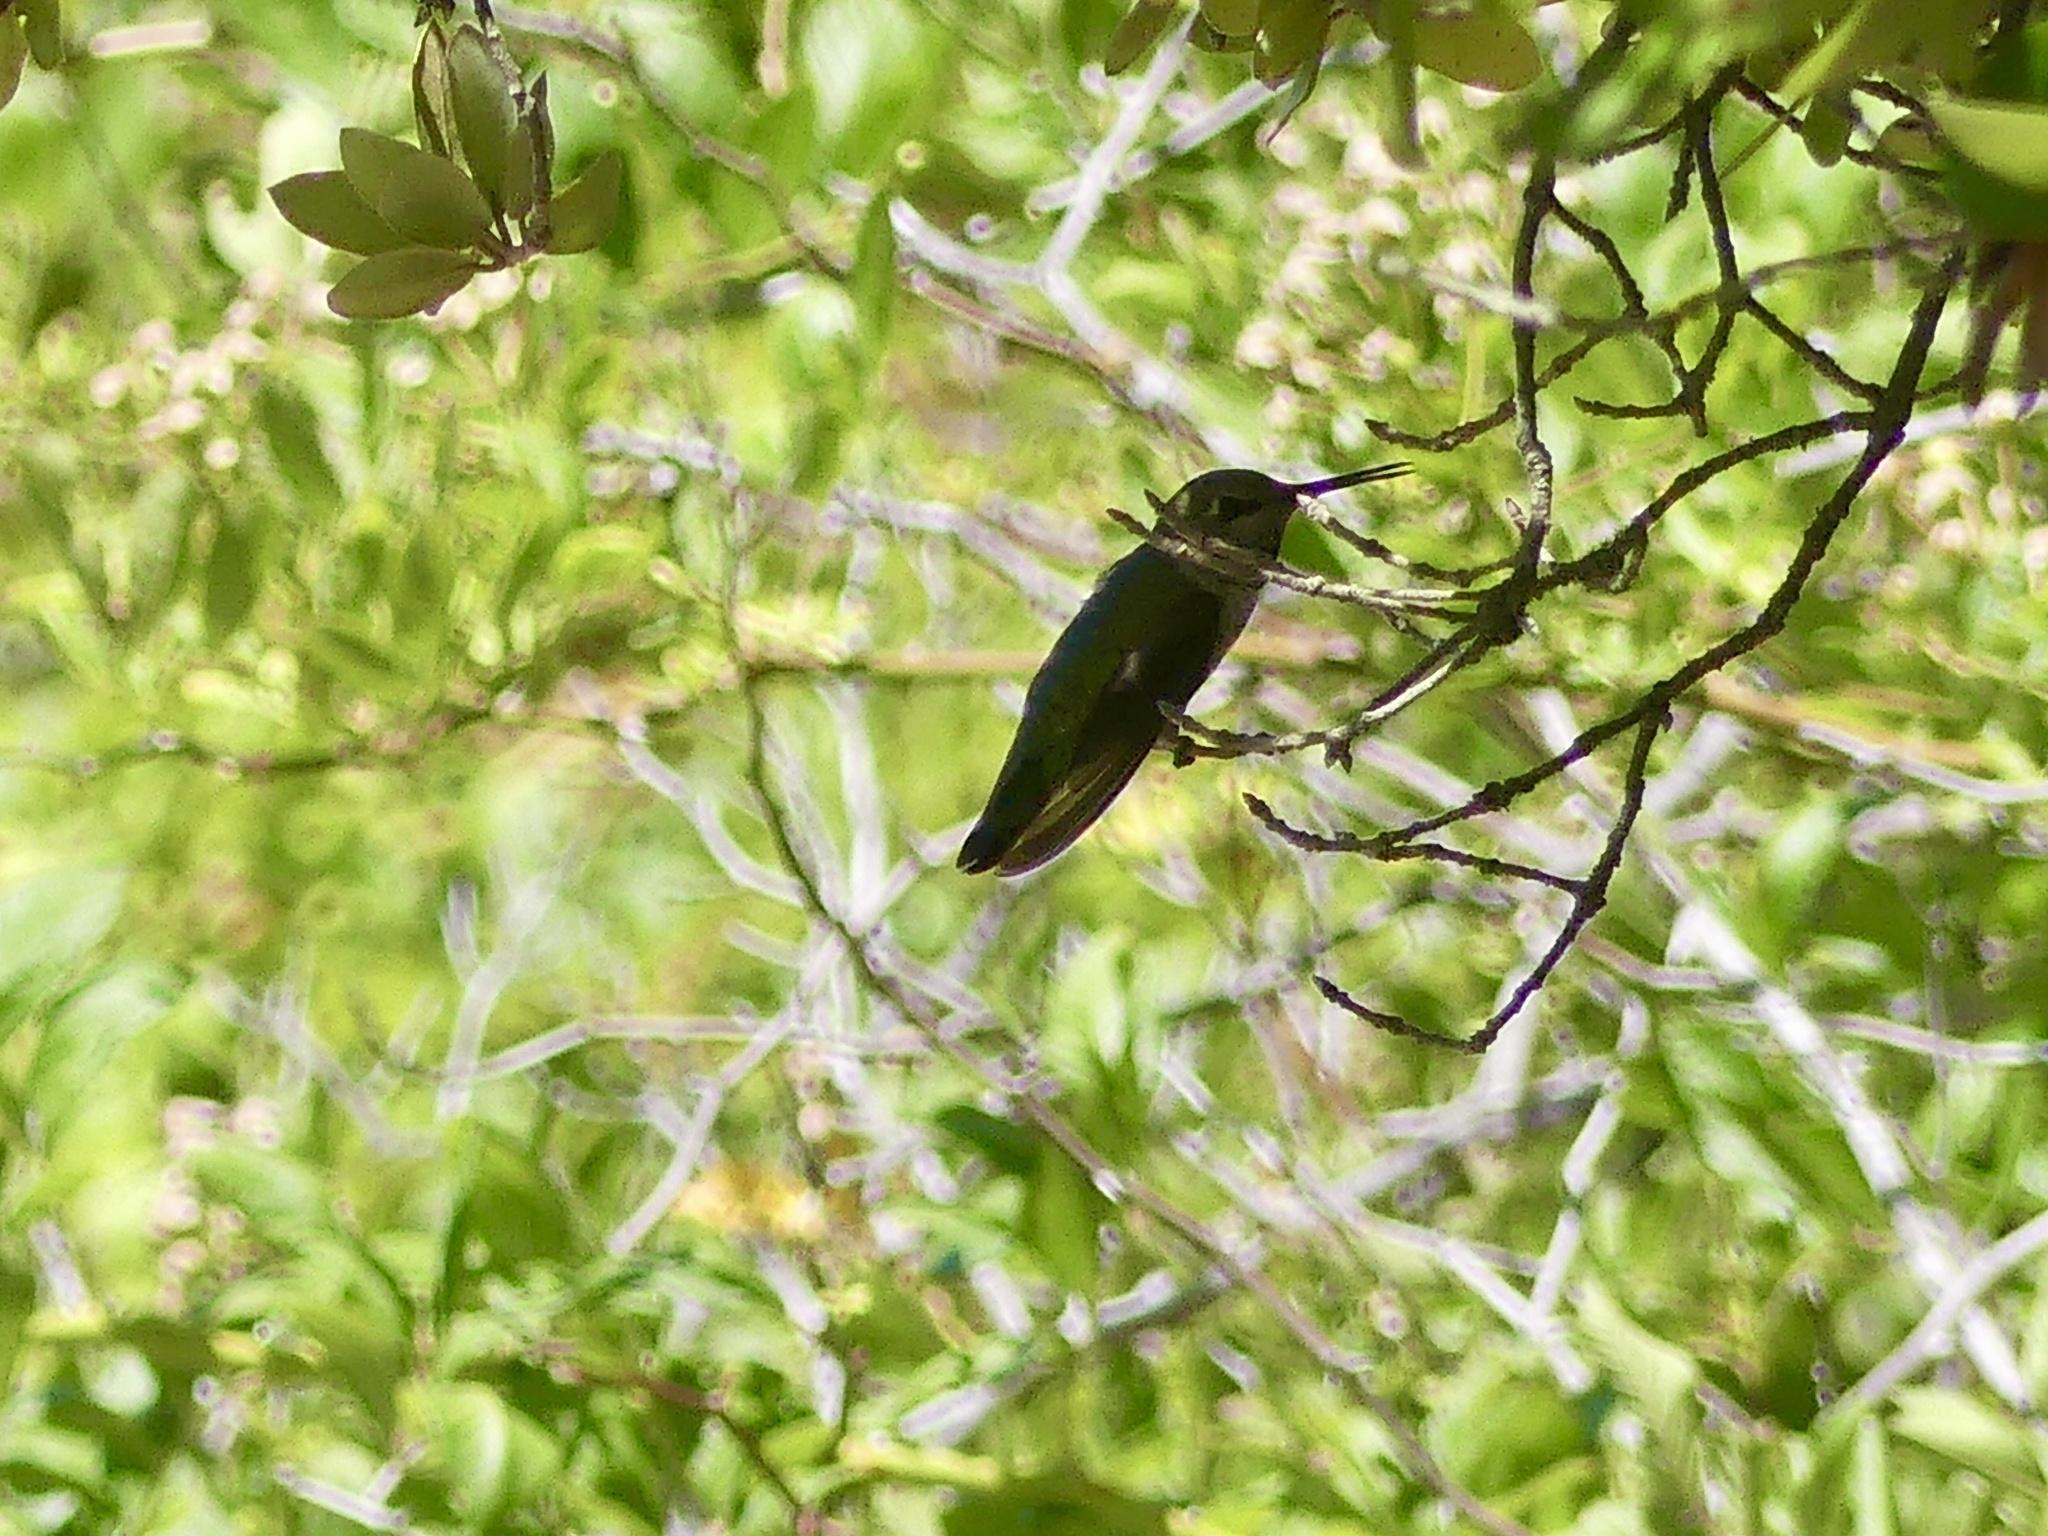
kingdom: Animalia
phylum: Chordata
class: Aves
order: Apodiformes
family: Trochilidae
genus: Calypte
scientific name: Calypte anna
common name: Anna's hummingbird
